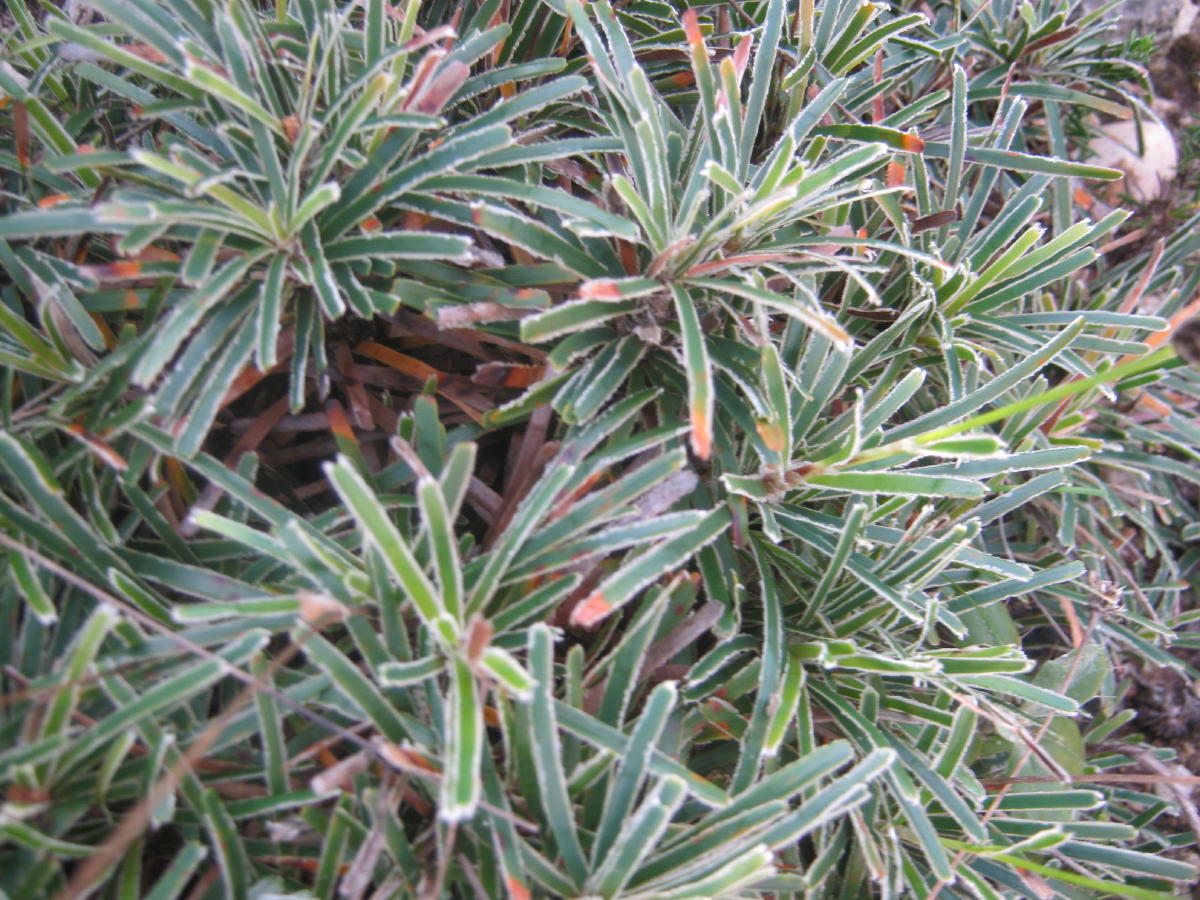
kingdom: Plantae
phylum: Tracheophyta
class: Liliopsida
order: Poales
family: Cyperaceae
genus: Ficinia
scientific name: Ficinia truncata
